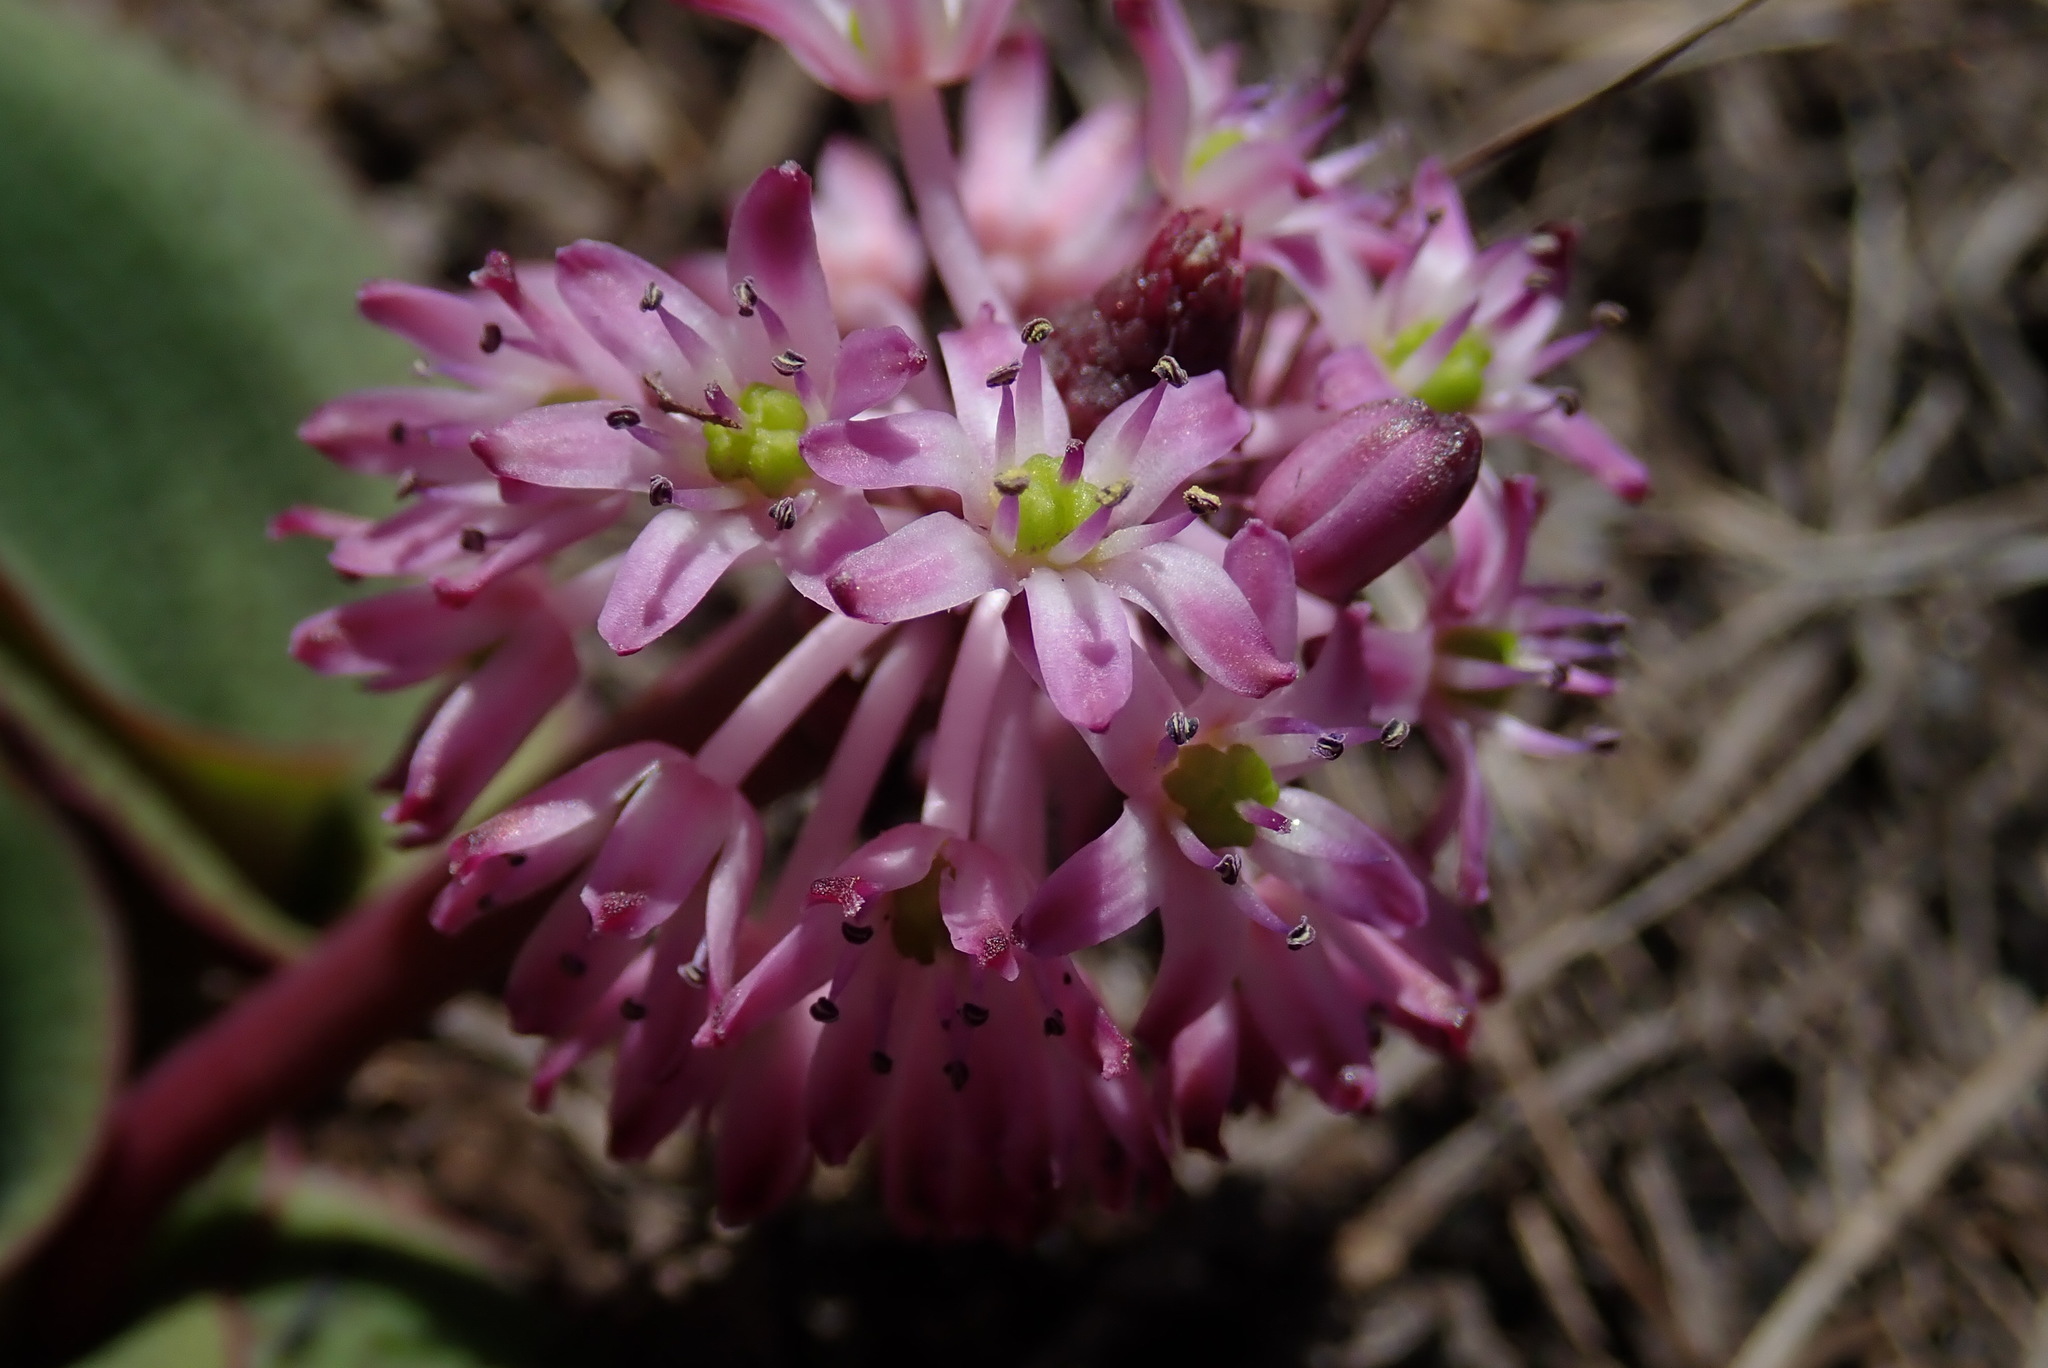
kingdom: Plantae
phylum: Tracheophyta
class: Liliopsida
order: Asparagales
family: Asparagaceae
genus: Ledebouria
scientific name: Ledebouria mokobulanensis
